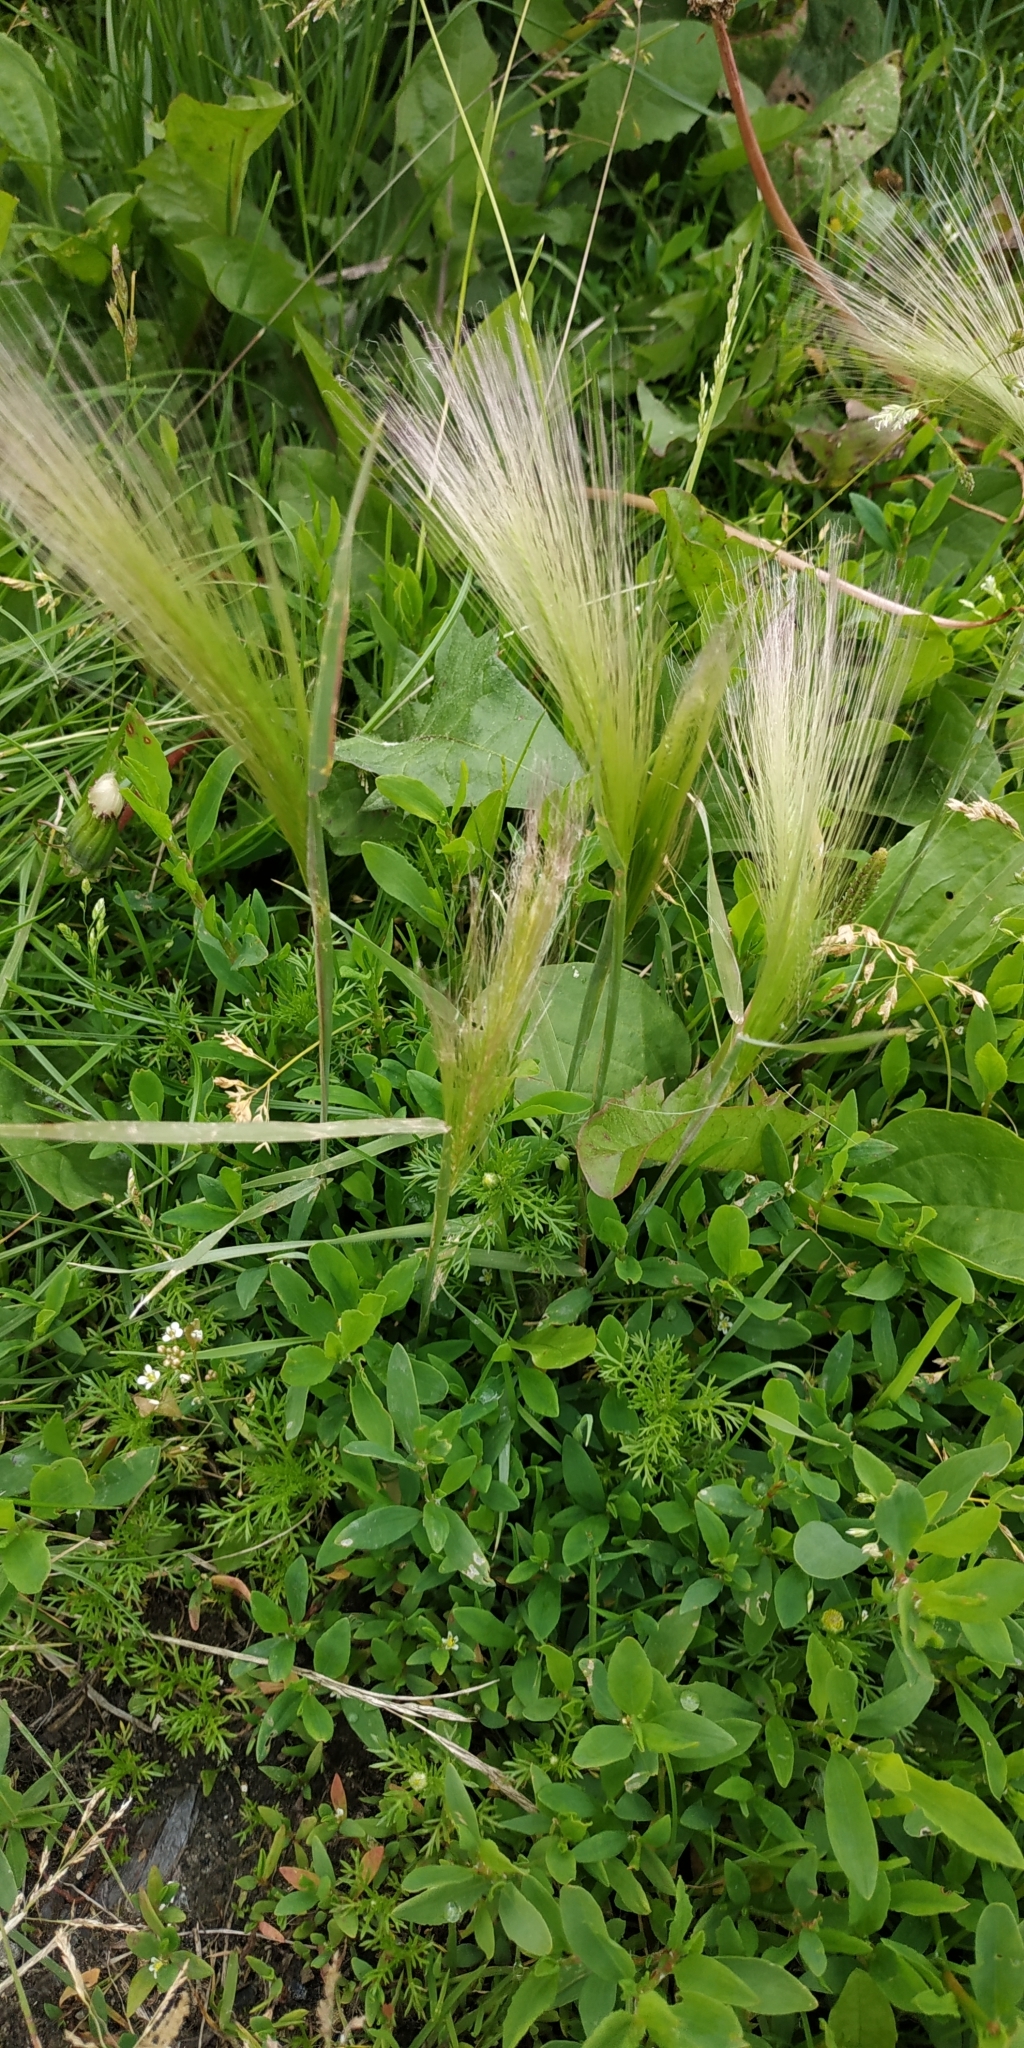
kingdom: Plantae
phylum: Tracheophyta
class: Liliopsida
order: Poales
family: Poaceae
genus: Hordeum
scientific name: Hordeum jubatum
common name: Foxtail barley
